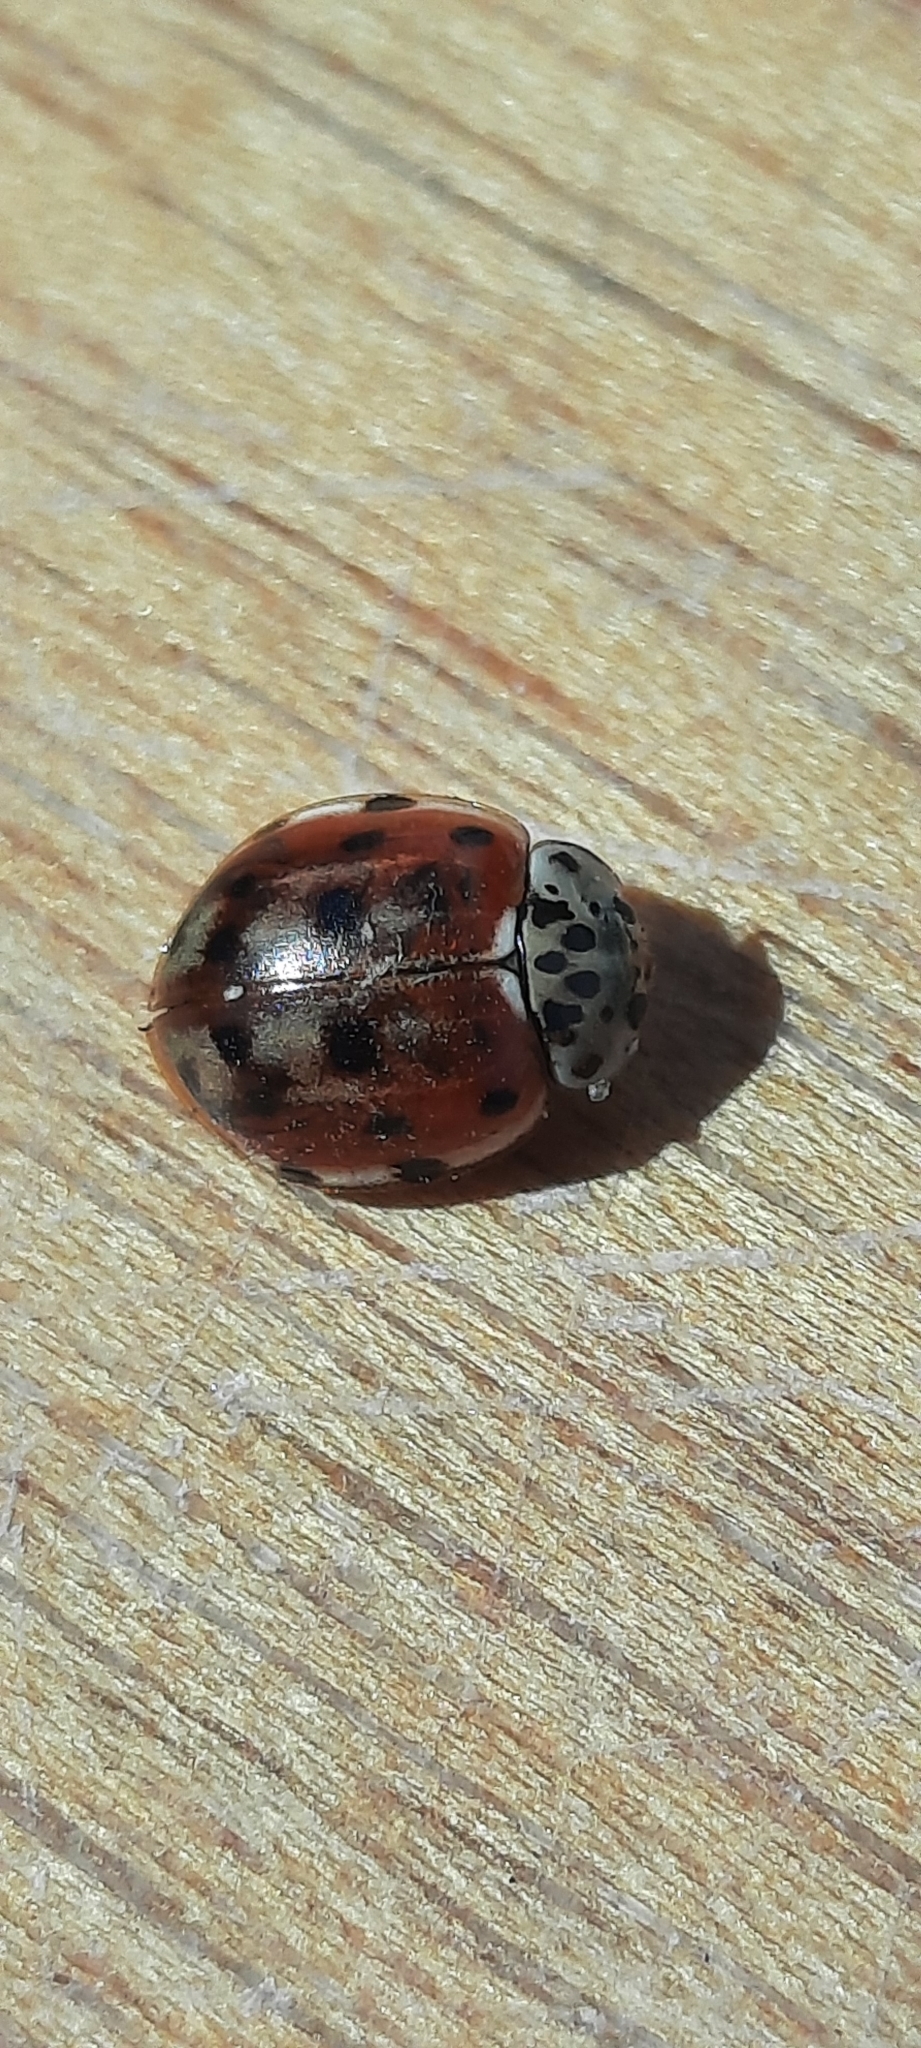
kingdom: Animalia
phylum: Arthropoda
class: Insecta
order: Coleoptera
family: Coccinellidae
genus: Harmonia
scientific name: Harmonia quadripunctata
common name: Cream-streaked ladybird
